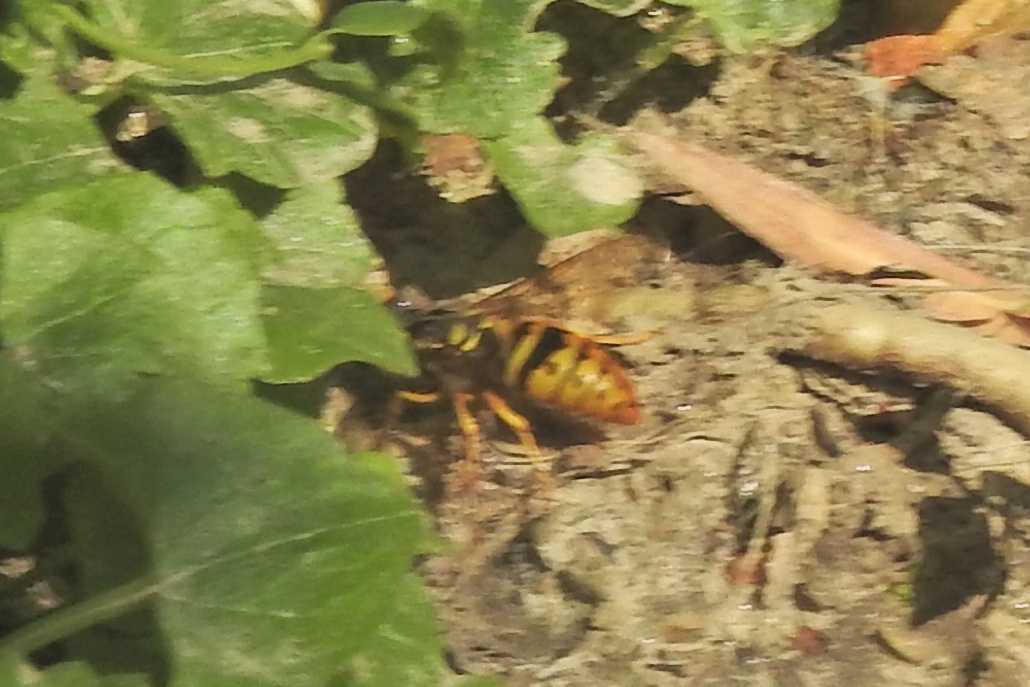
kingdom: Animalia
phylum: Arthropoda
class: Insecta
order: Hymenoptera
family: Vespidae
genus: Vespula
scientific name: Vespula maculifrons
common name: Eastern yellowjacket
